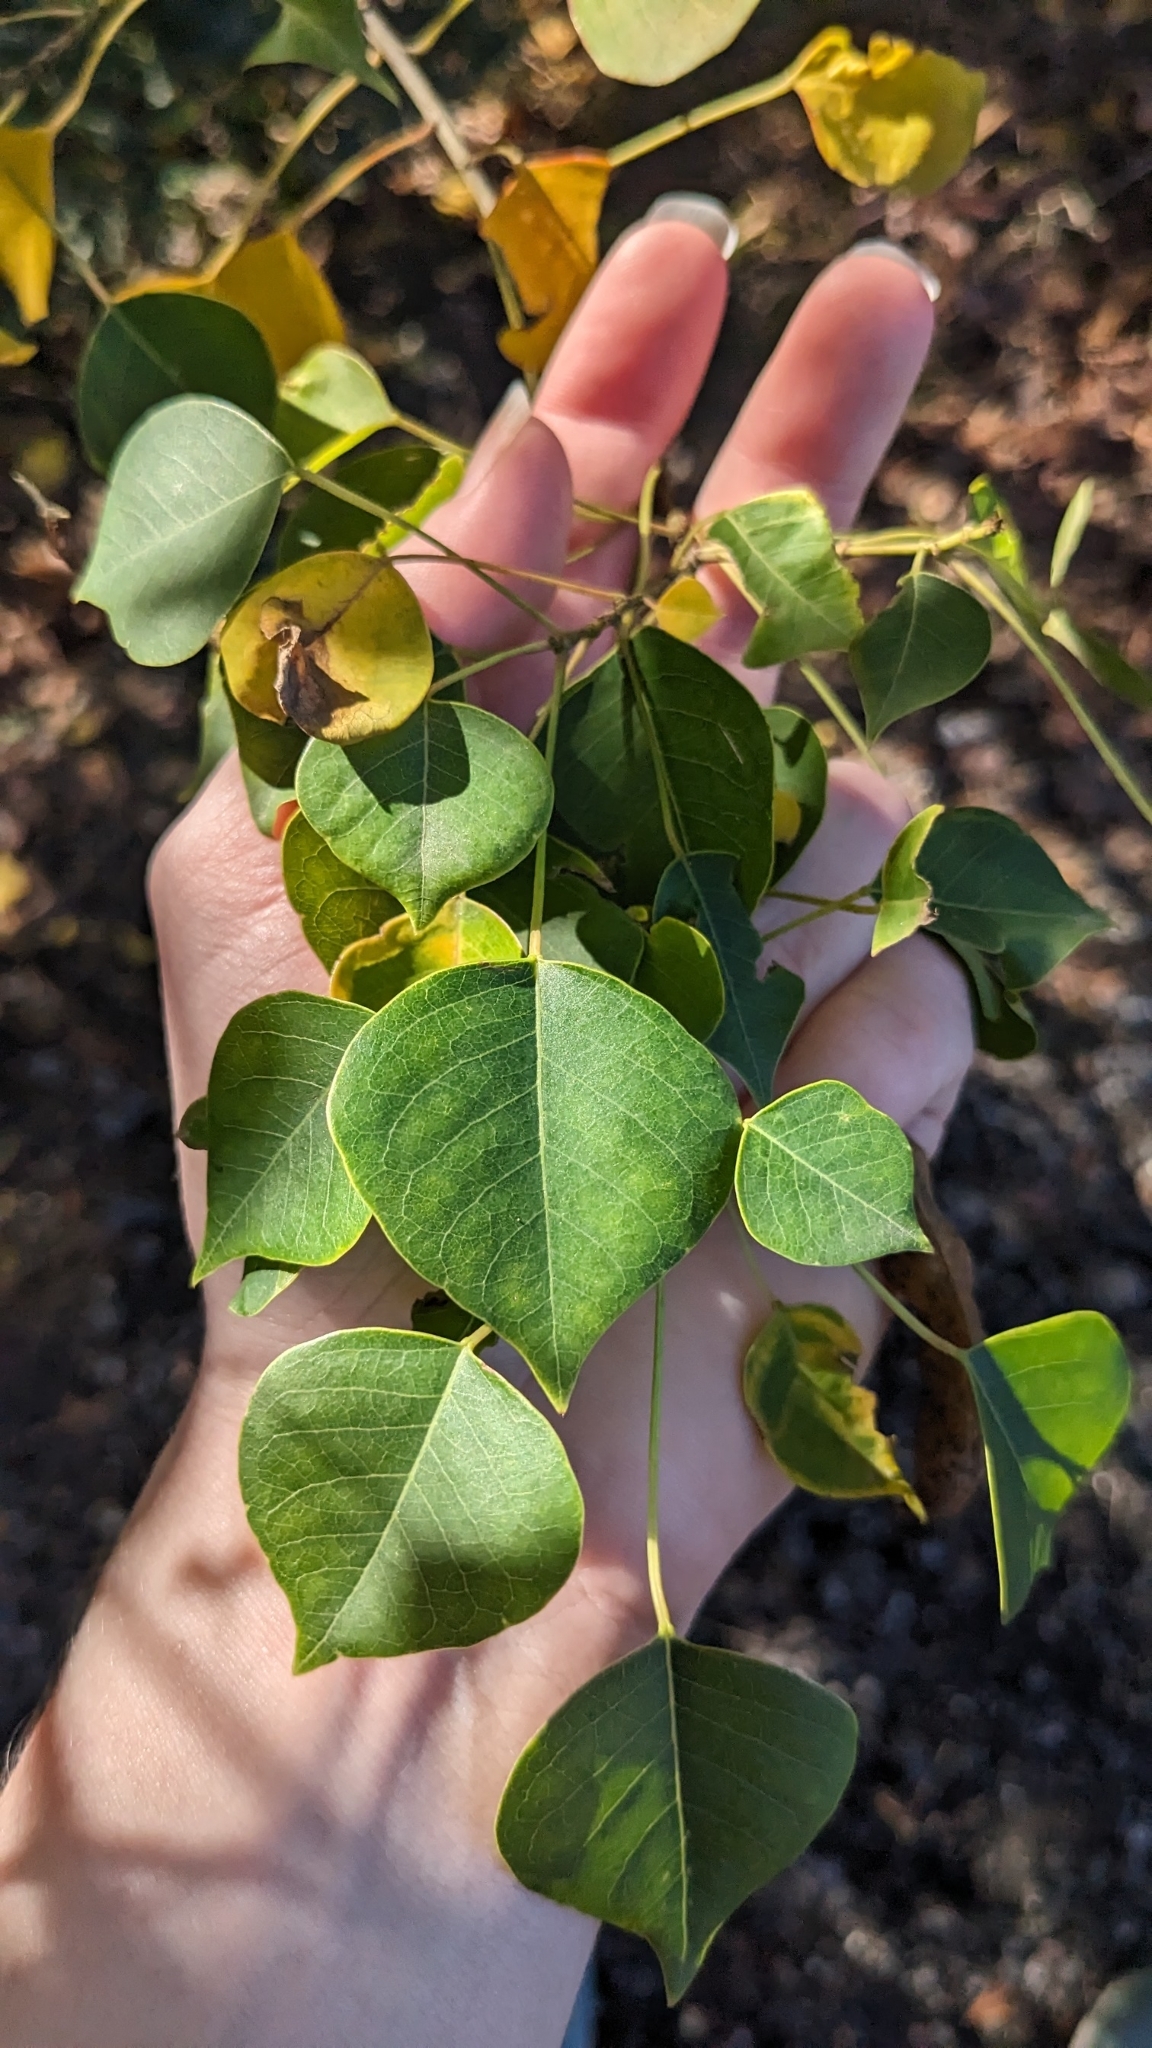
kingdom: Plantae
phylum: Tracheophyta
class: Magnoliopsida
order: Malpighiales
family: Euphorbiaceae
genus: Triadica
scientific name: Triadica sebifera
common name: Chinese tallow
